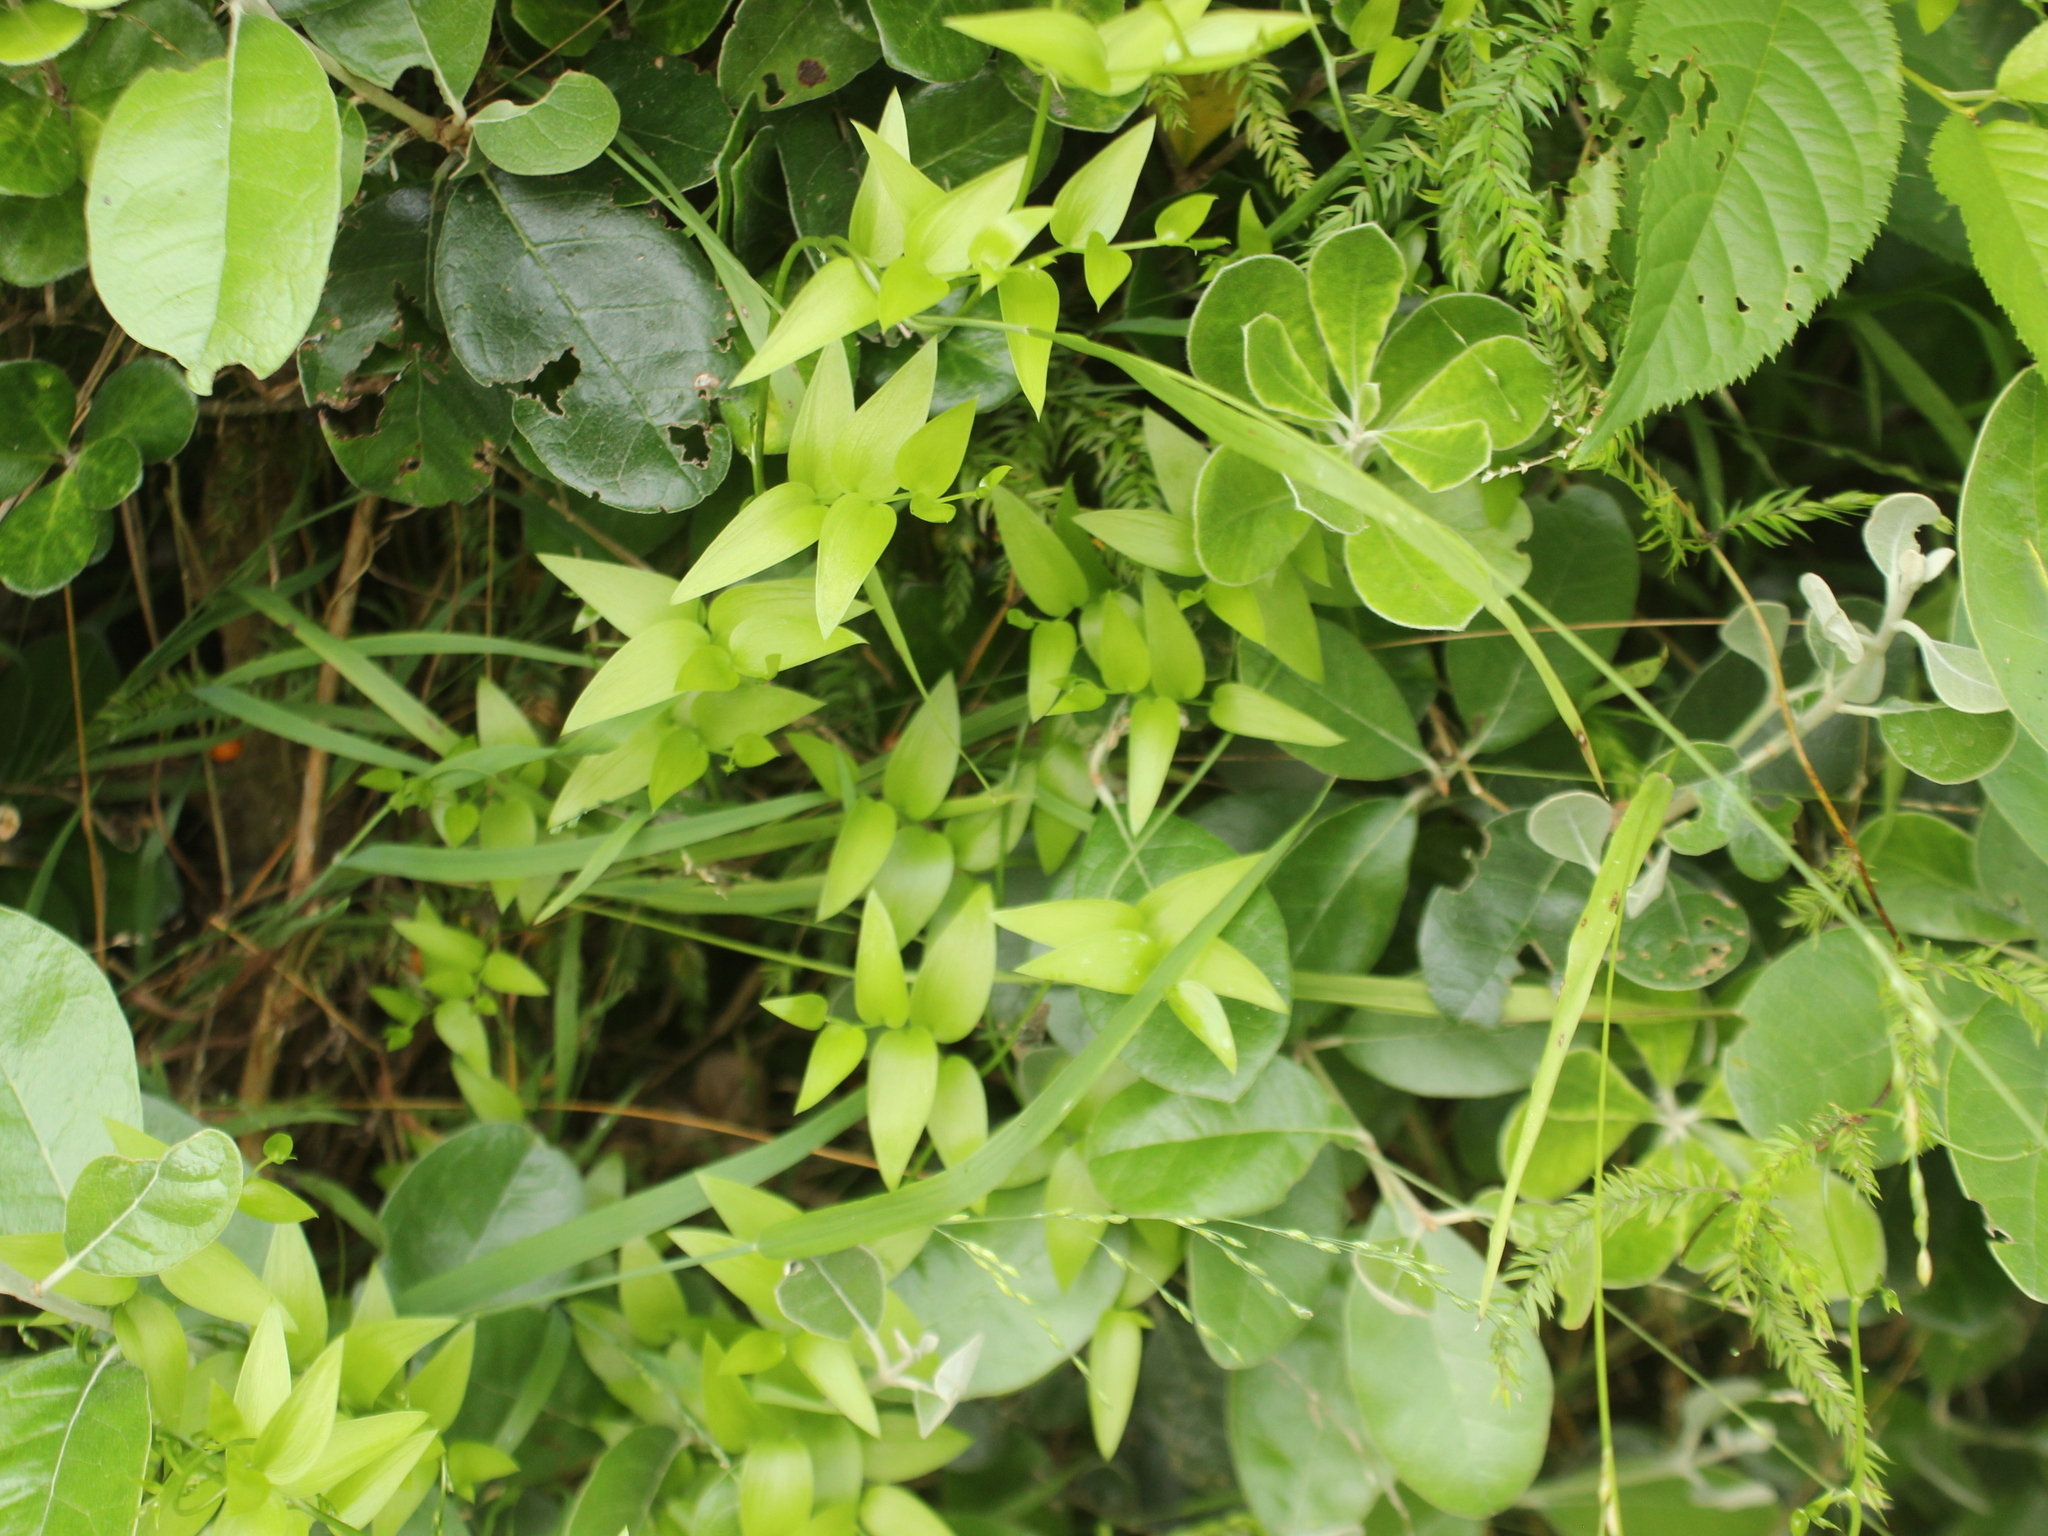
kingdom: Plantae
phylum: Tracheophyta
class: Liliopsida
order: Asparagales
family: Asparagaceae
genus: Asparagus
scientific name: Asparagus asparagoides
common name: African asparagus fern
